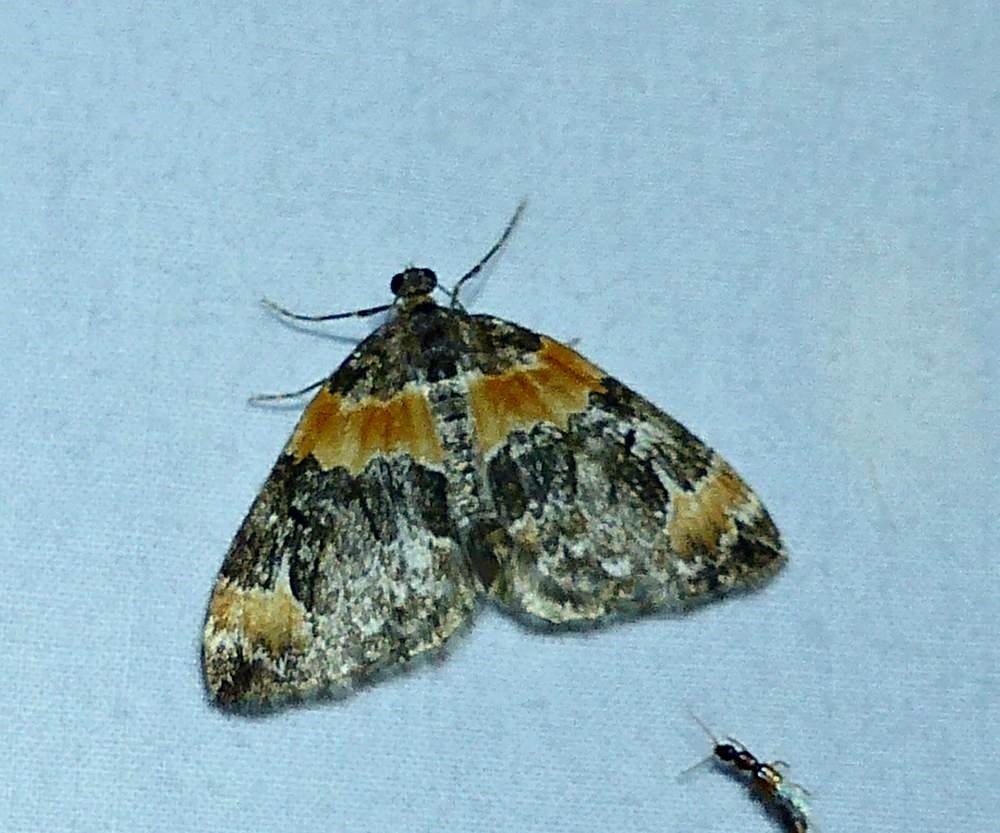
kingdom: Animalia
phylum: Arthropoda
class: Insecta
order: Lepidoptera
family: Geometridae
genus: Dysstroma
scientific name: Dysstroma hersiliata
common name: Orange-barred carpet
